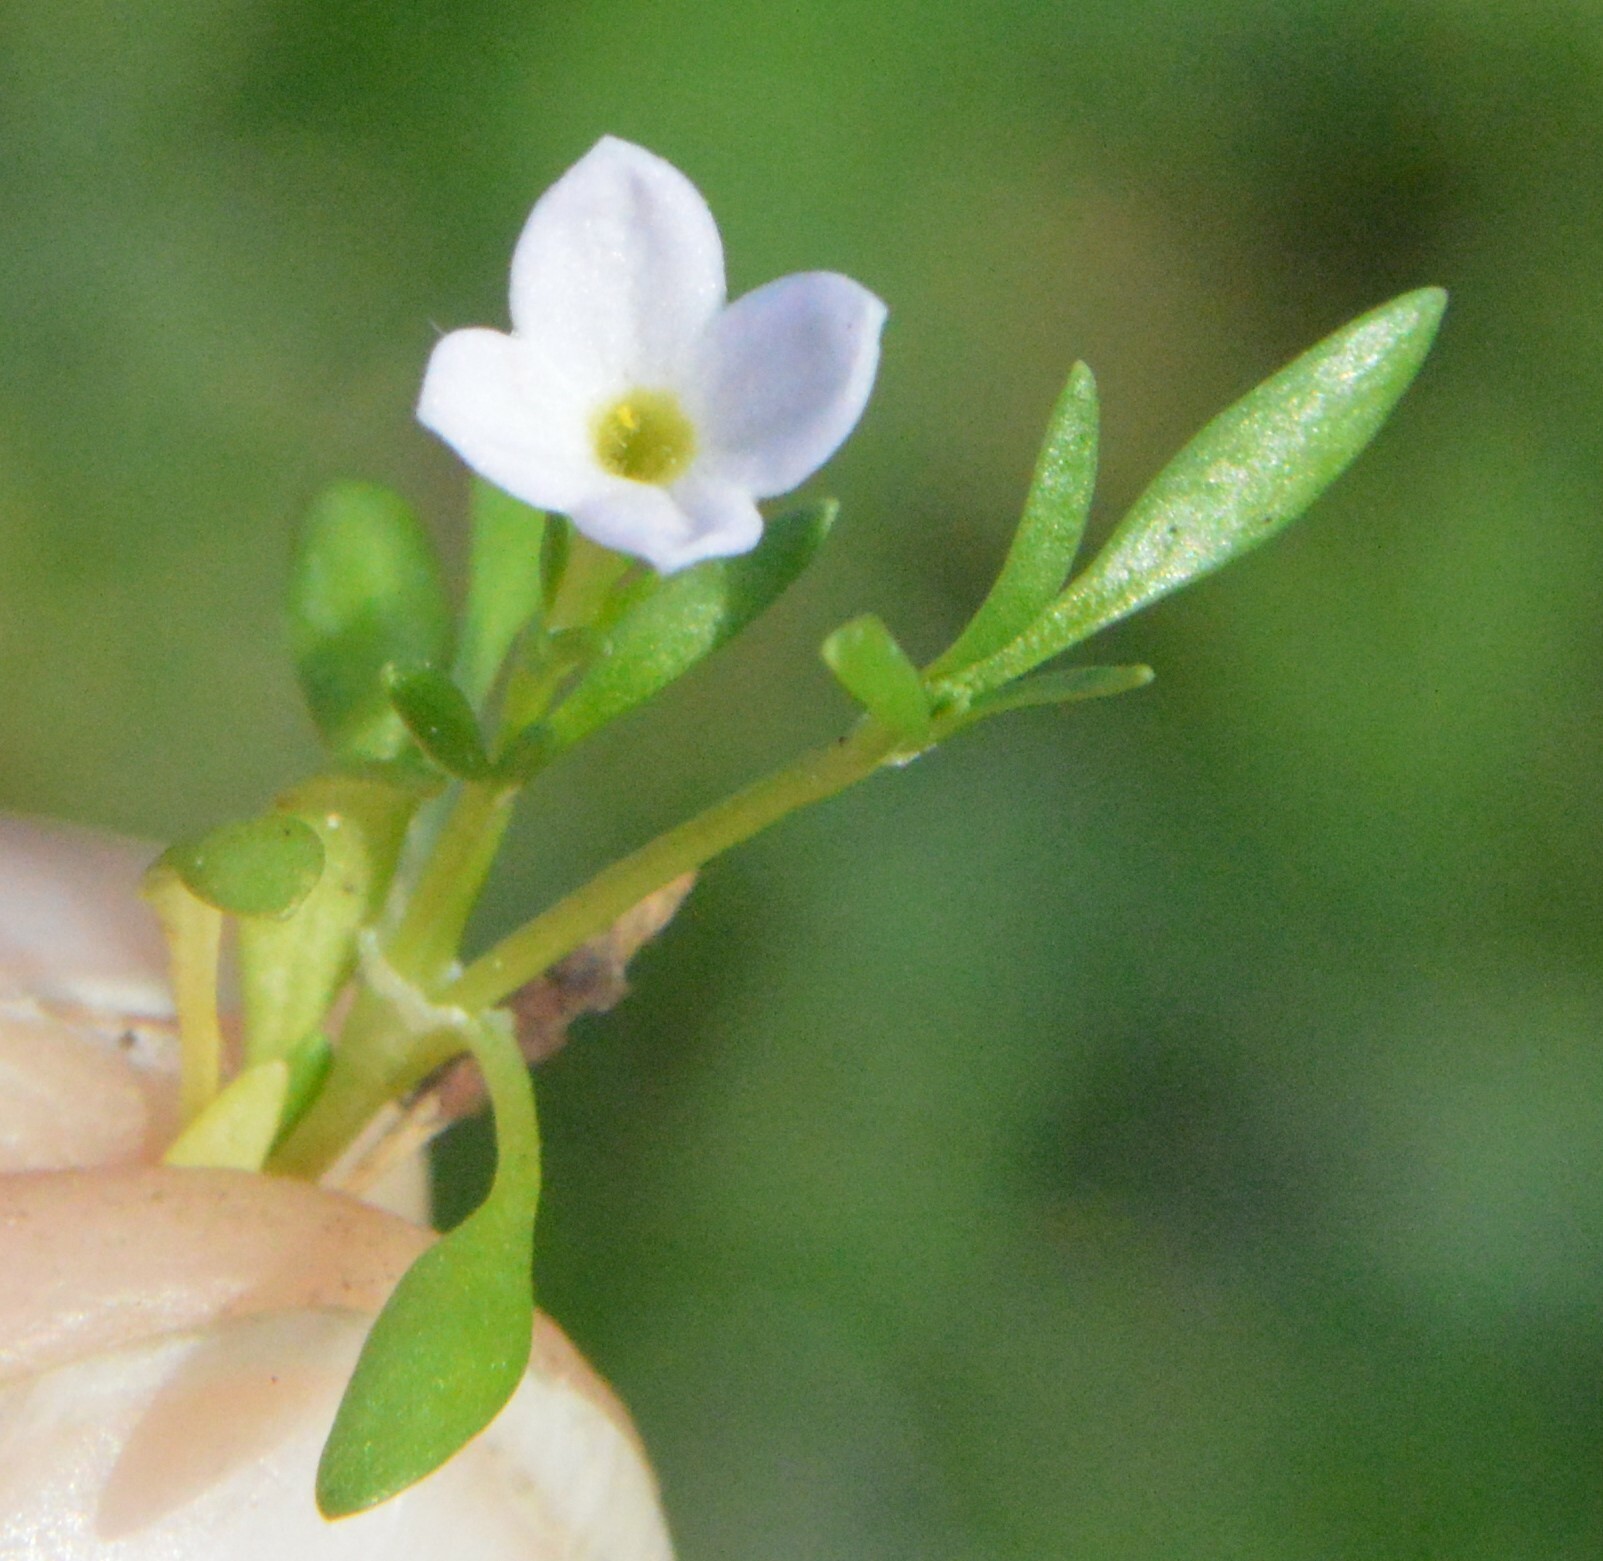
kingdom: Plantae
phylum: Tracheophyta
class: Magnoliopsida
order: Gentianales
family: Rubiaceae
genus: Houstonia
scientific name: Houstonia rosea
